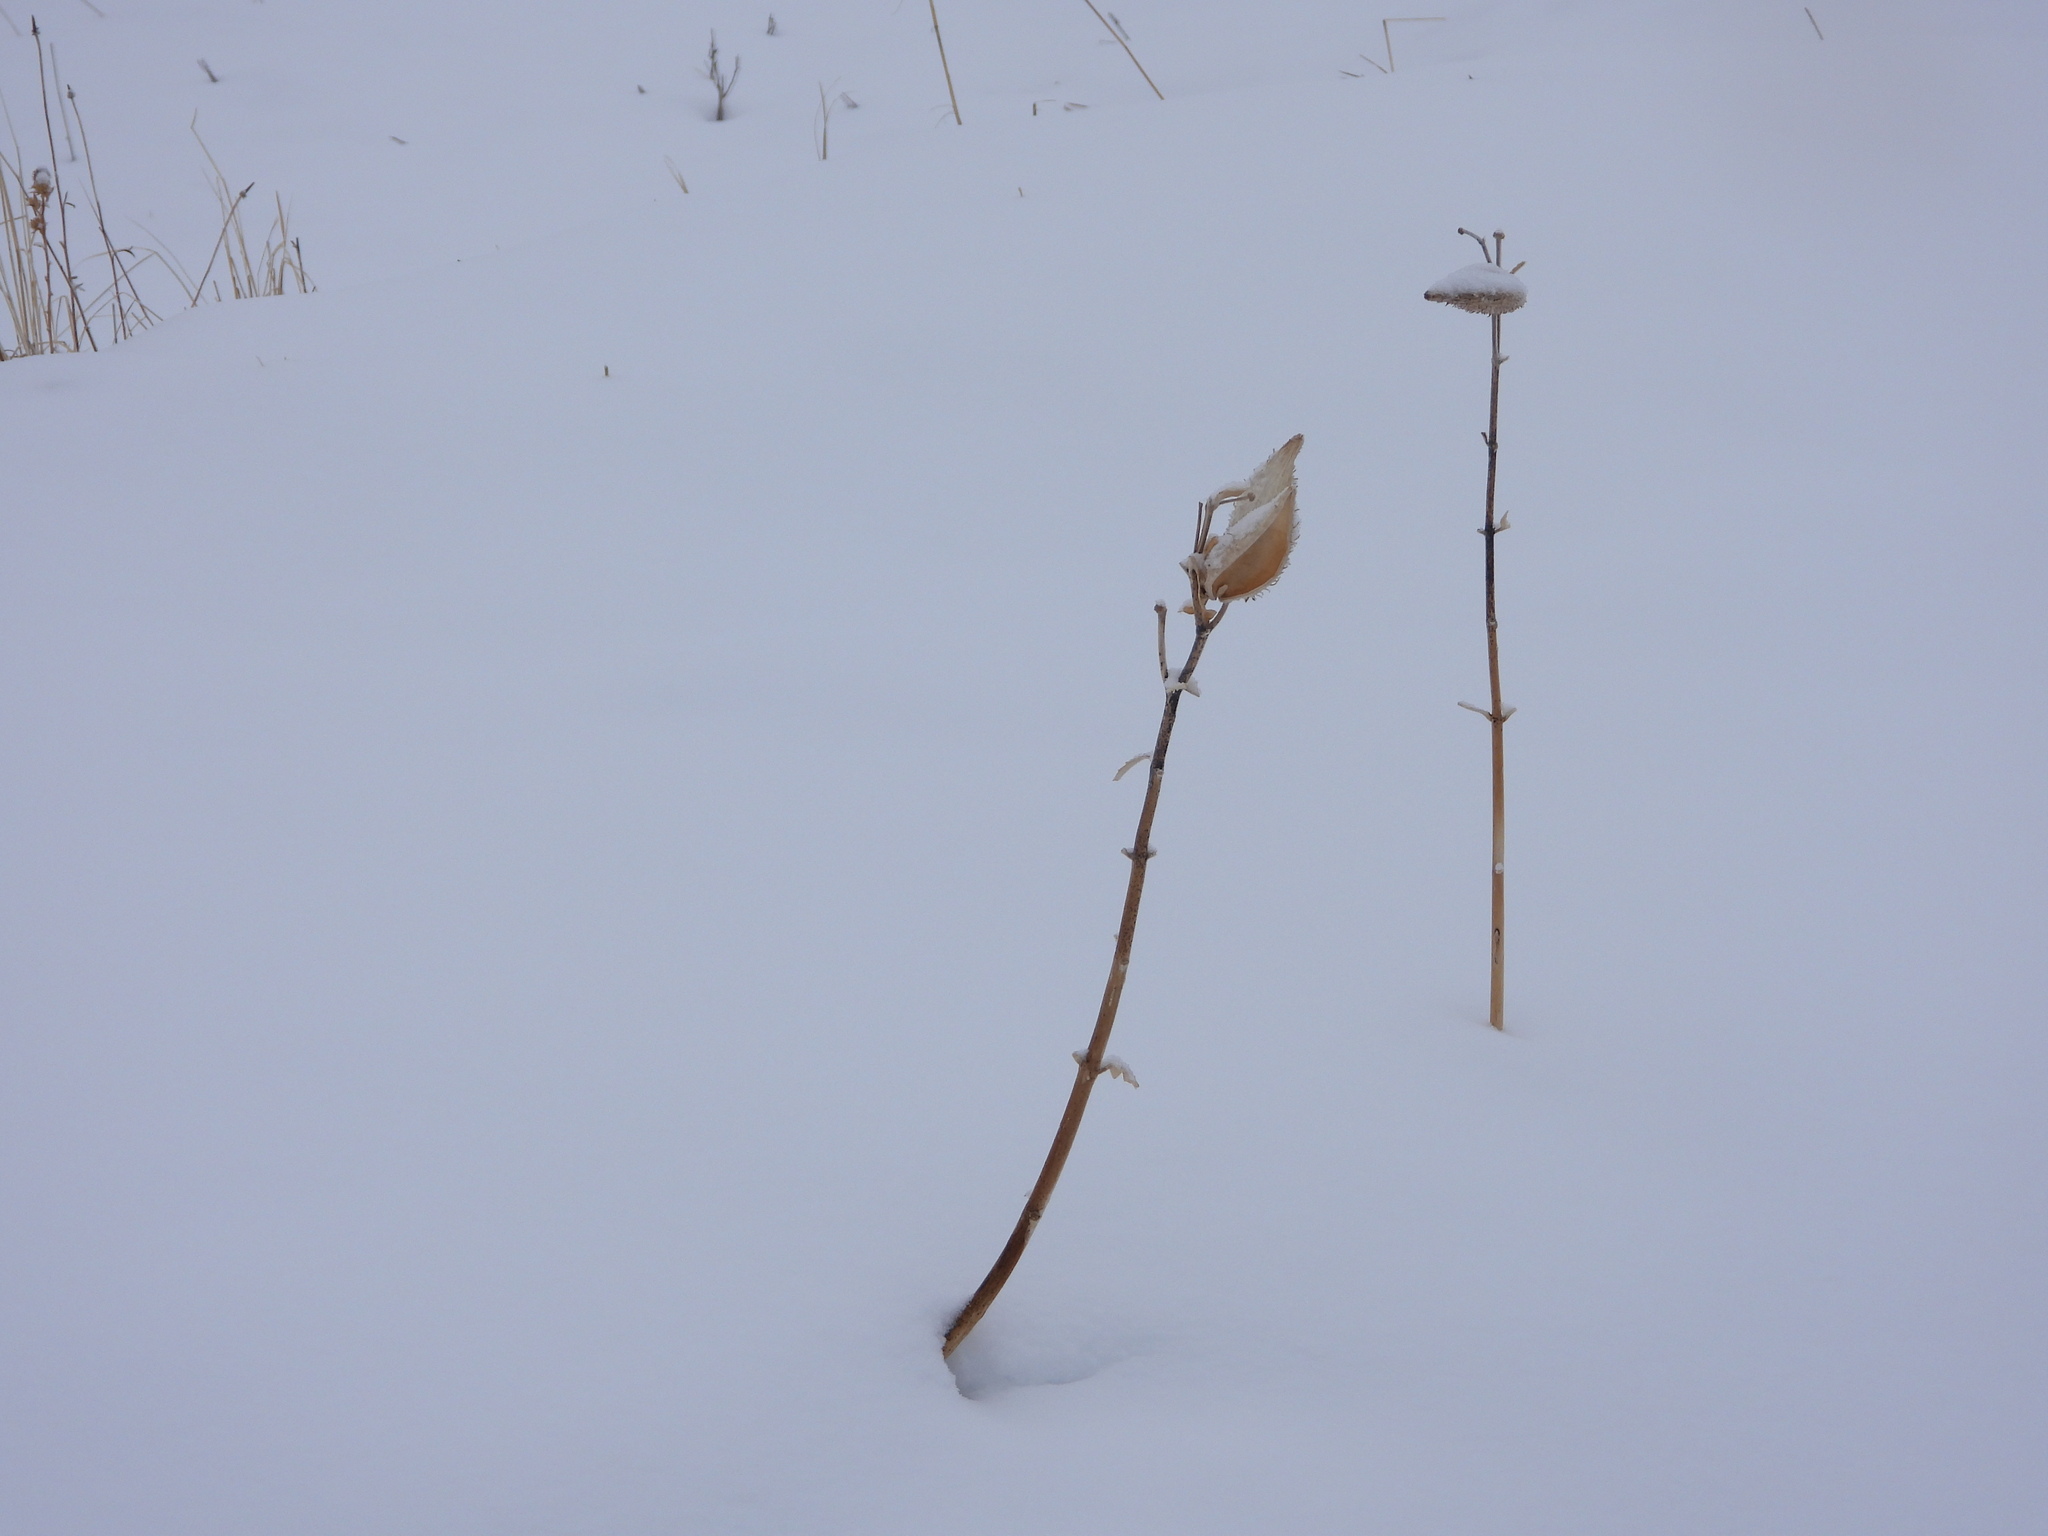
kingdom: Plantae
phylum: Tracheophyta
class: Magnoliopsida
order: Gentianales
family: Apocynaceae
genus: Asclepias
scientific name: Asclepias speciosa
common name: Showy milkweed
